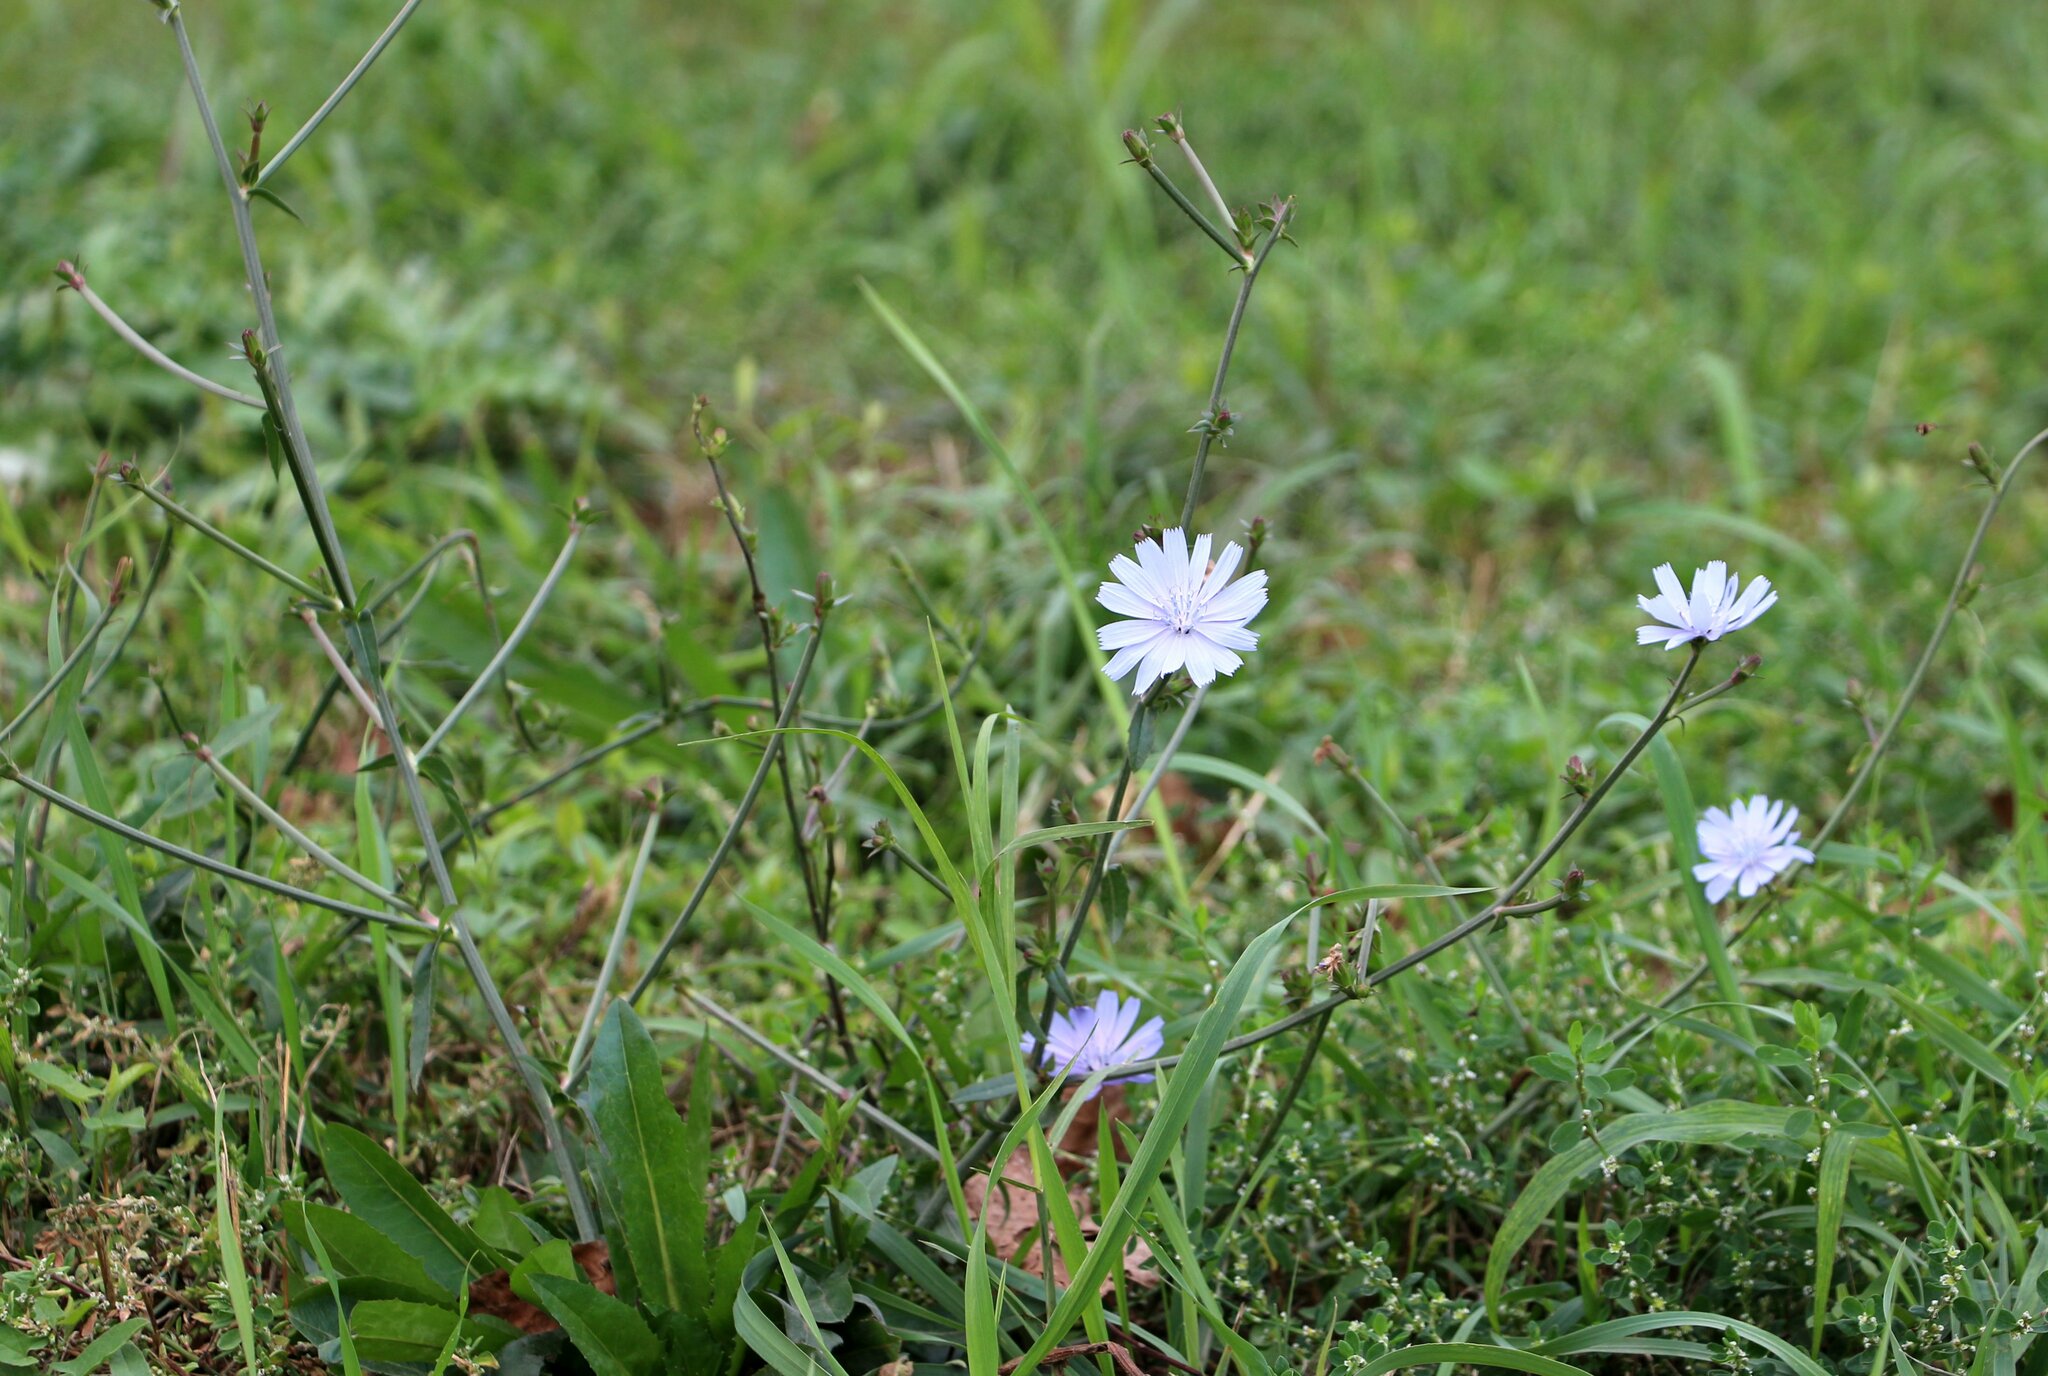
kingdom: Plantae
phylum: Tracheophyta
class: Magnoliopsida
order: Asterales
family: Asteraceae
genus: Cichorium
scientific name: Cichorium intybus
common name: Chicory
